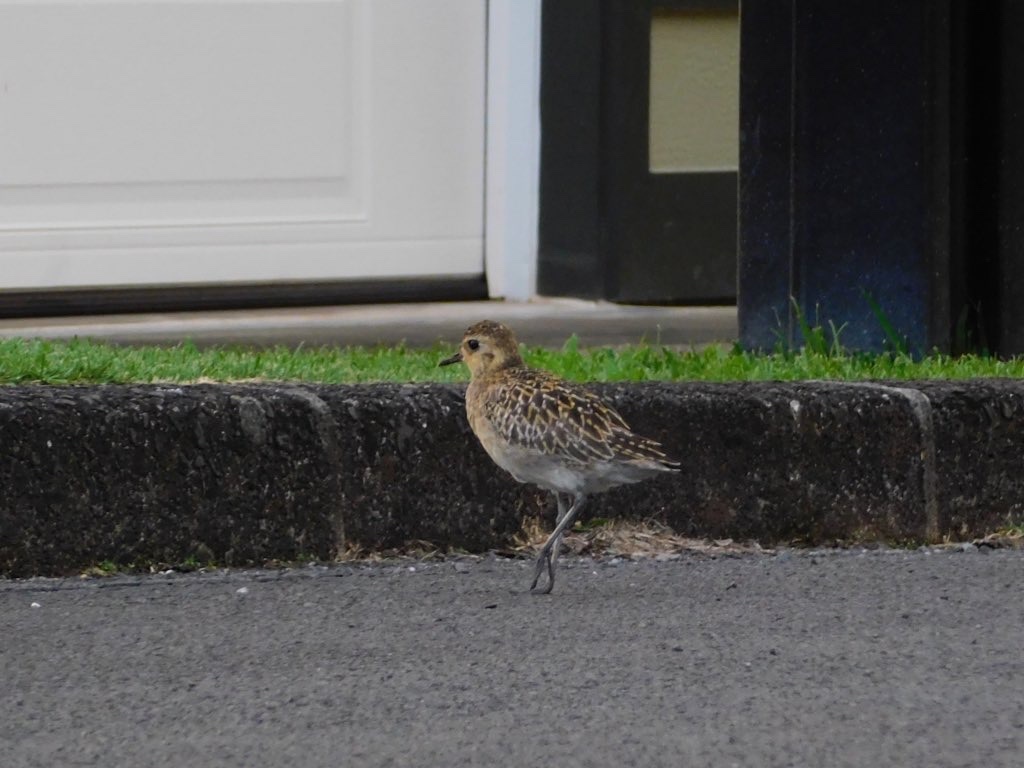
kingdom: Animalia
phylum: Chordata
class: Aves
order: Charadriiformes
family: Charadriidae
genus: Pluvialis
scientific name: Pluvialis fulva
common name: Pacific golden plover
